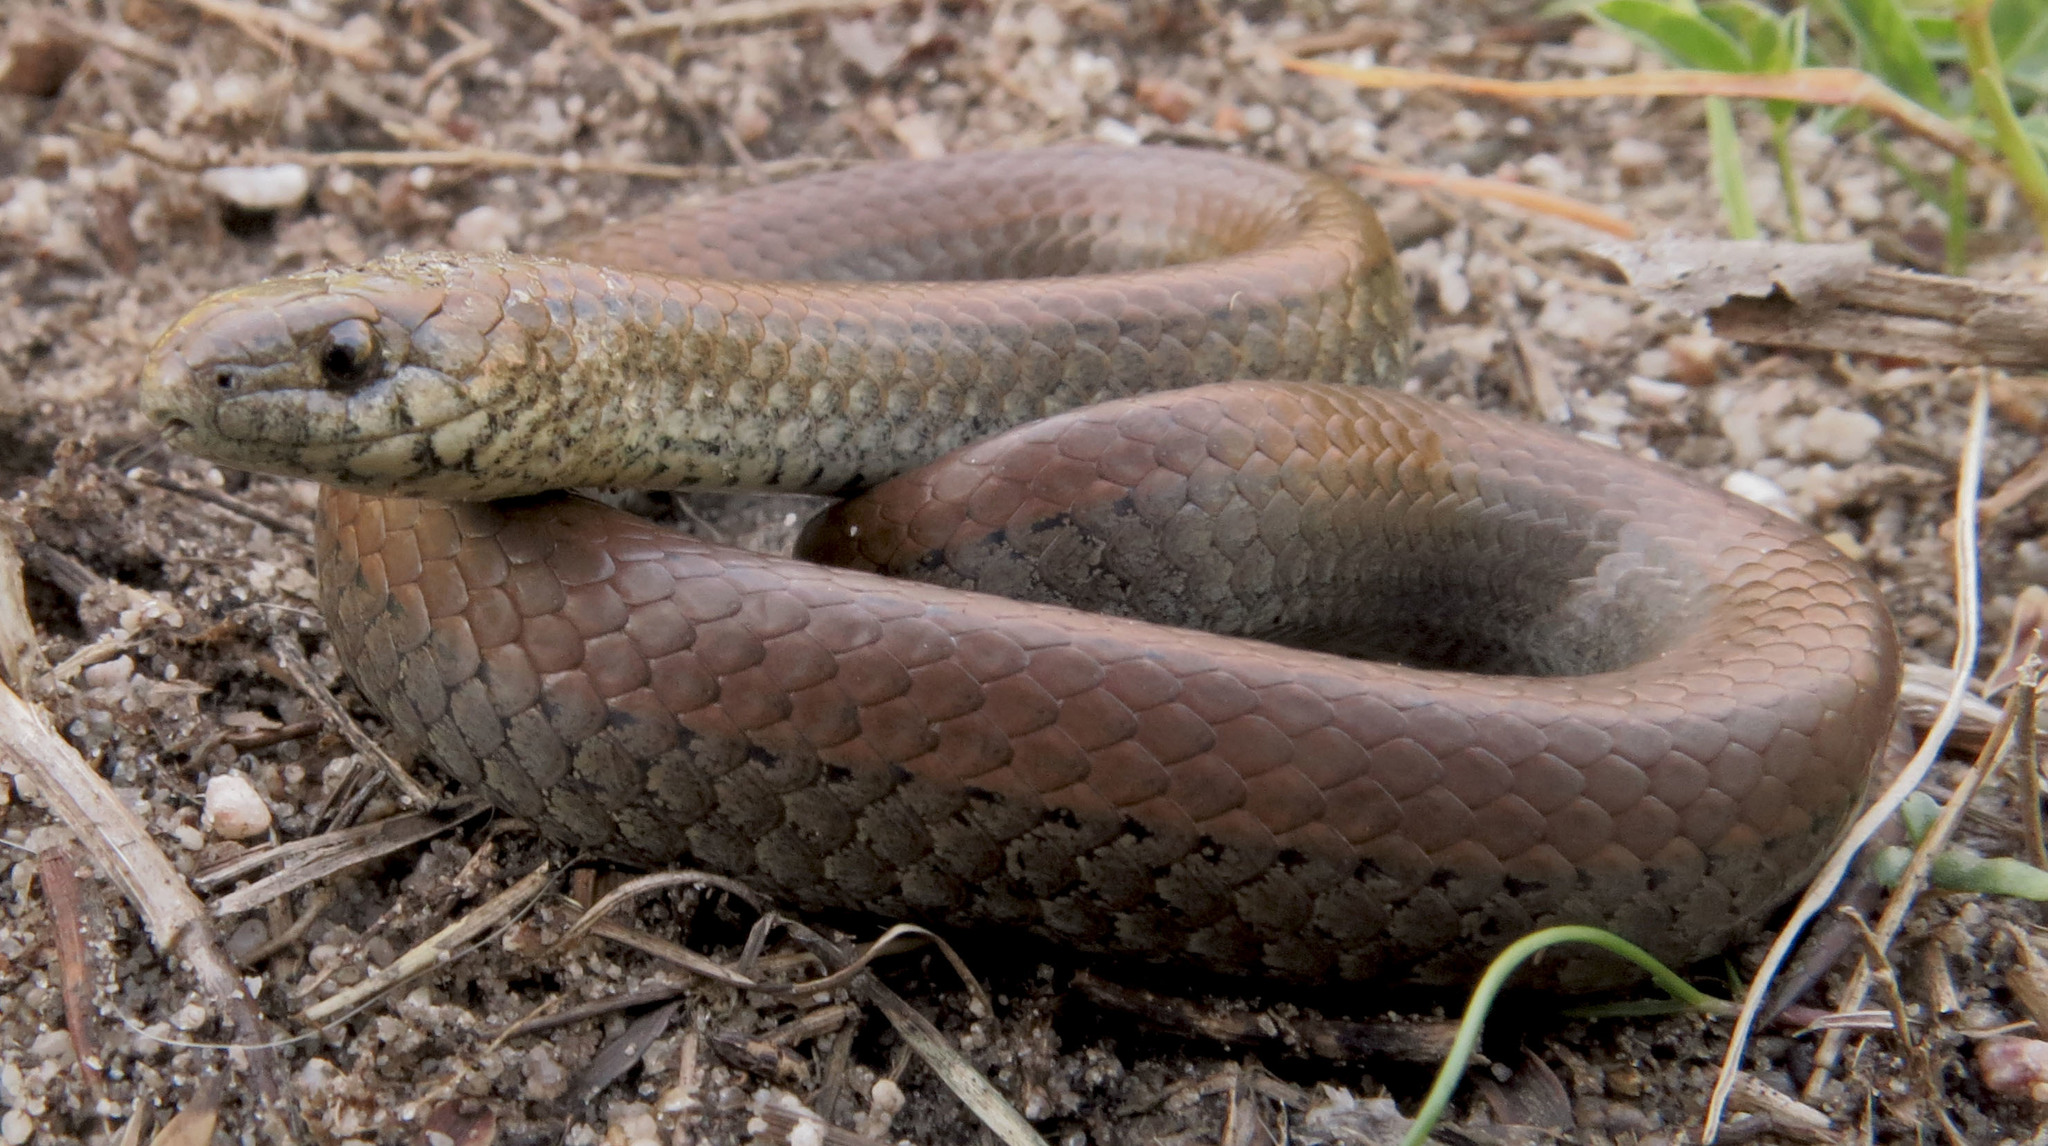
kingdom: Animalia
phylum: Chordata
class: Squamata
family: Pseudoxyrhophiidae
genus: Duberria
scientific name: Duberria lutrix
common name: Common slug eater
